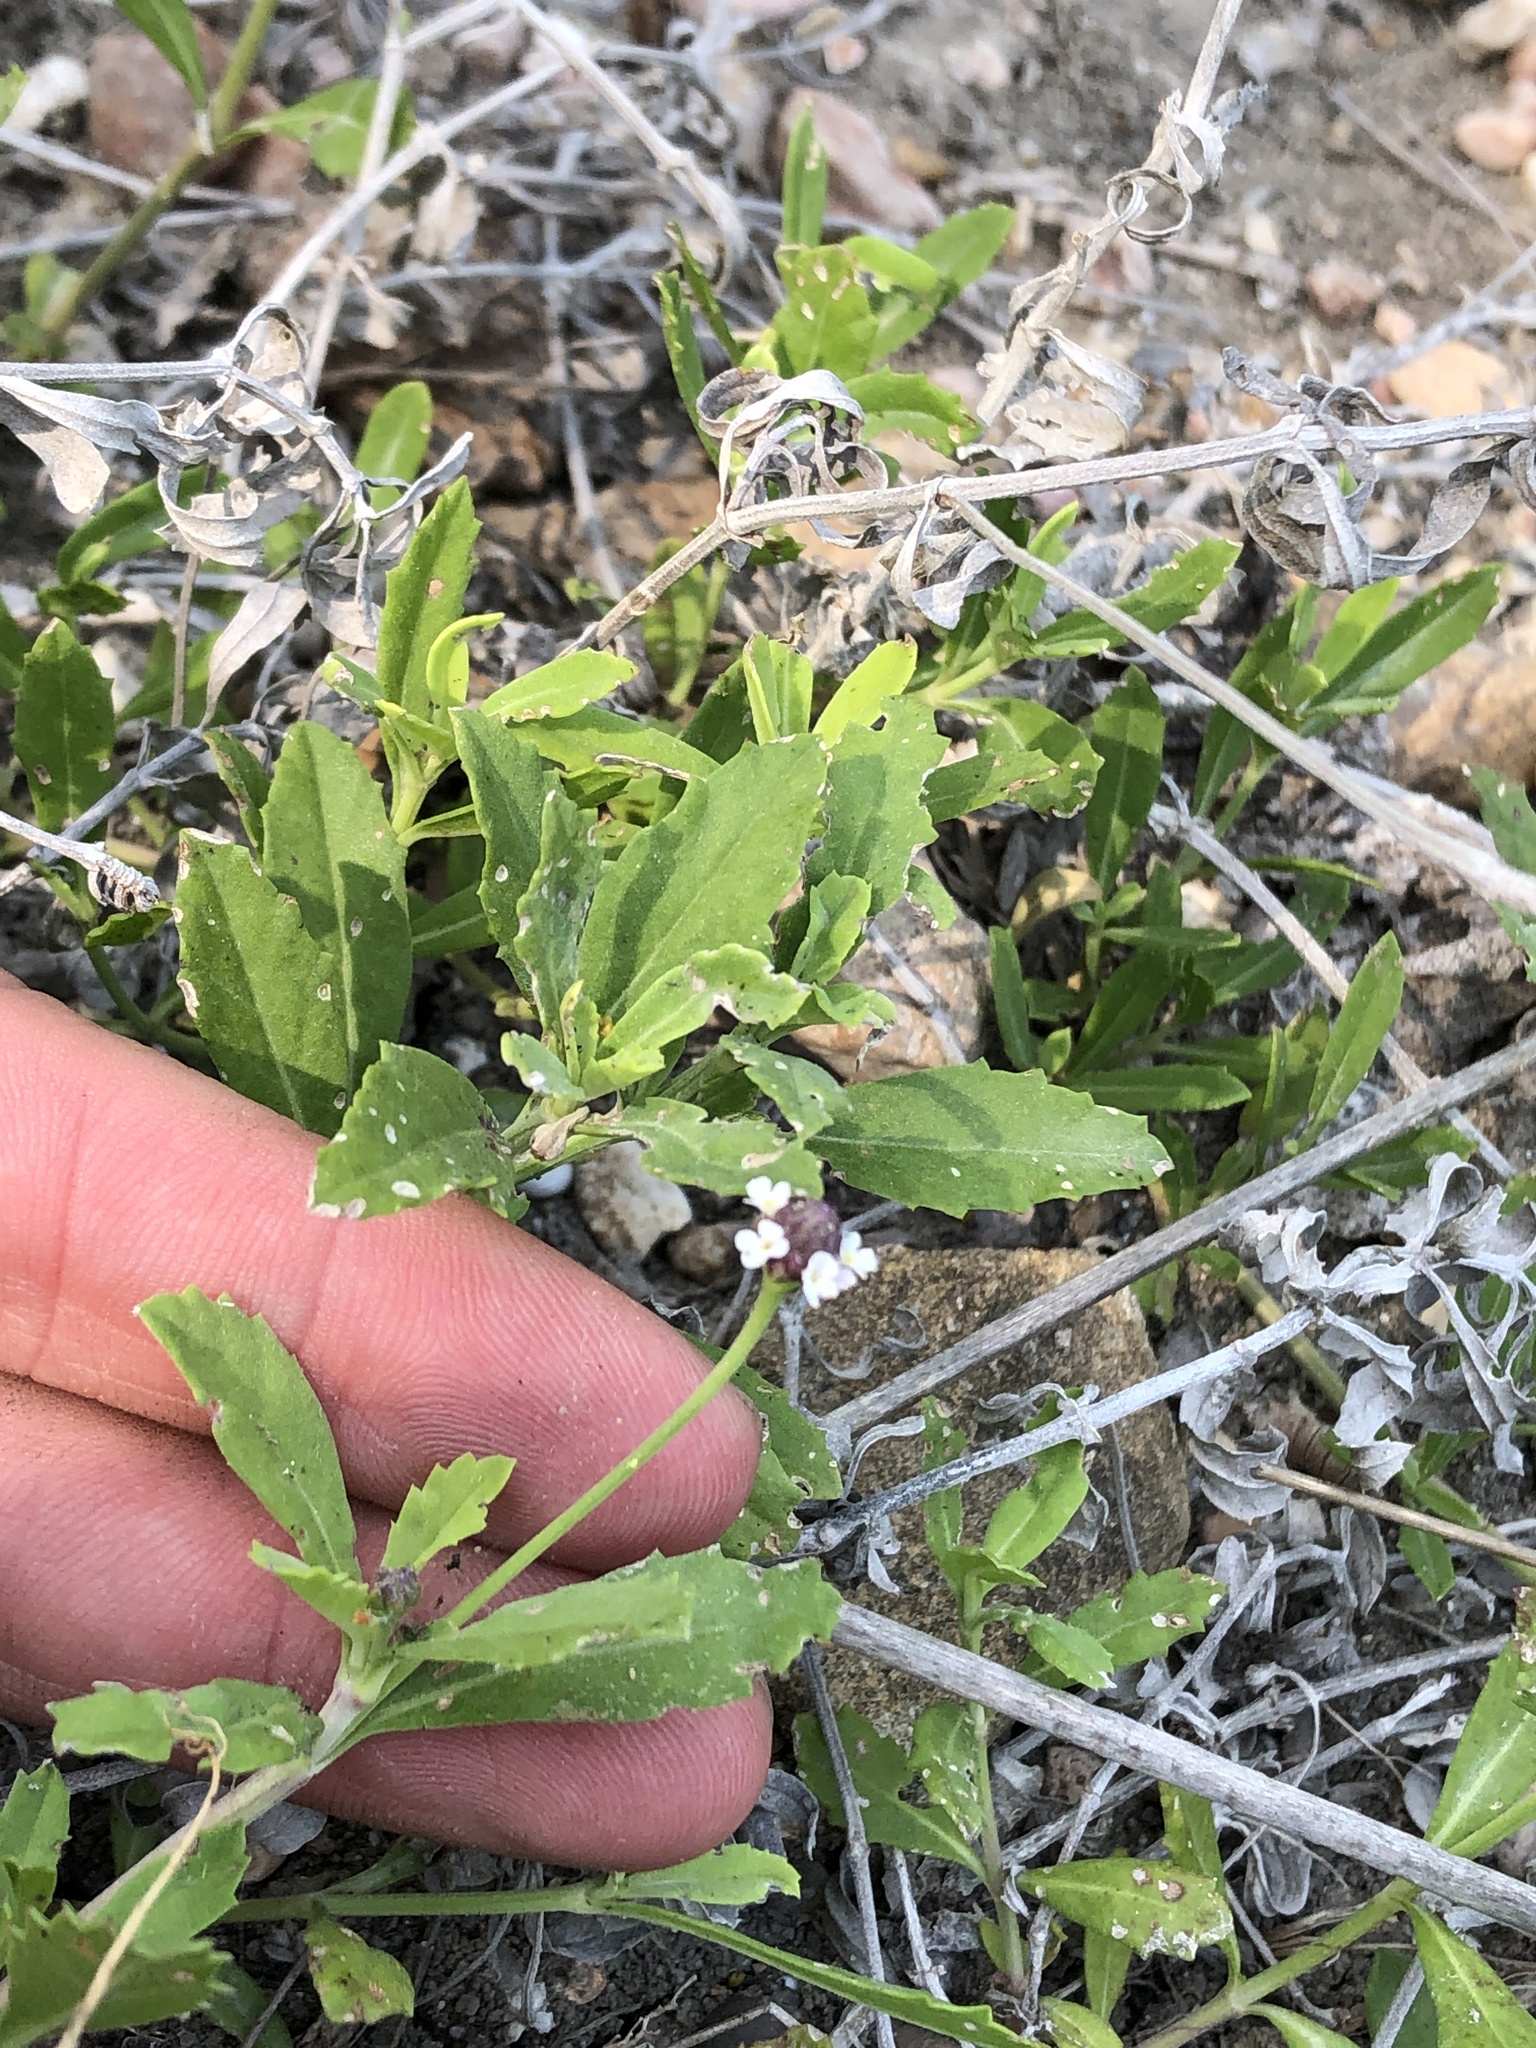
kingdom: Plantae
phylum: Tracheophyta
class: Magnoliopsida
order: Lamiales
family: Verbenaceae
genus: Phyla
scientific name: Phyla nodiflora
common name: Frogfruit
